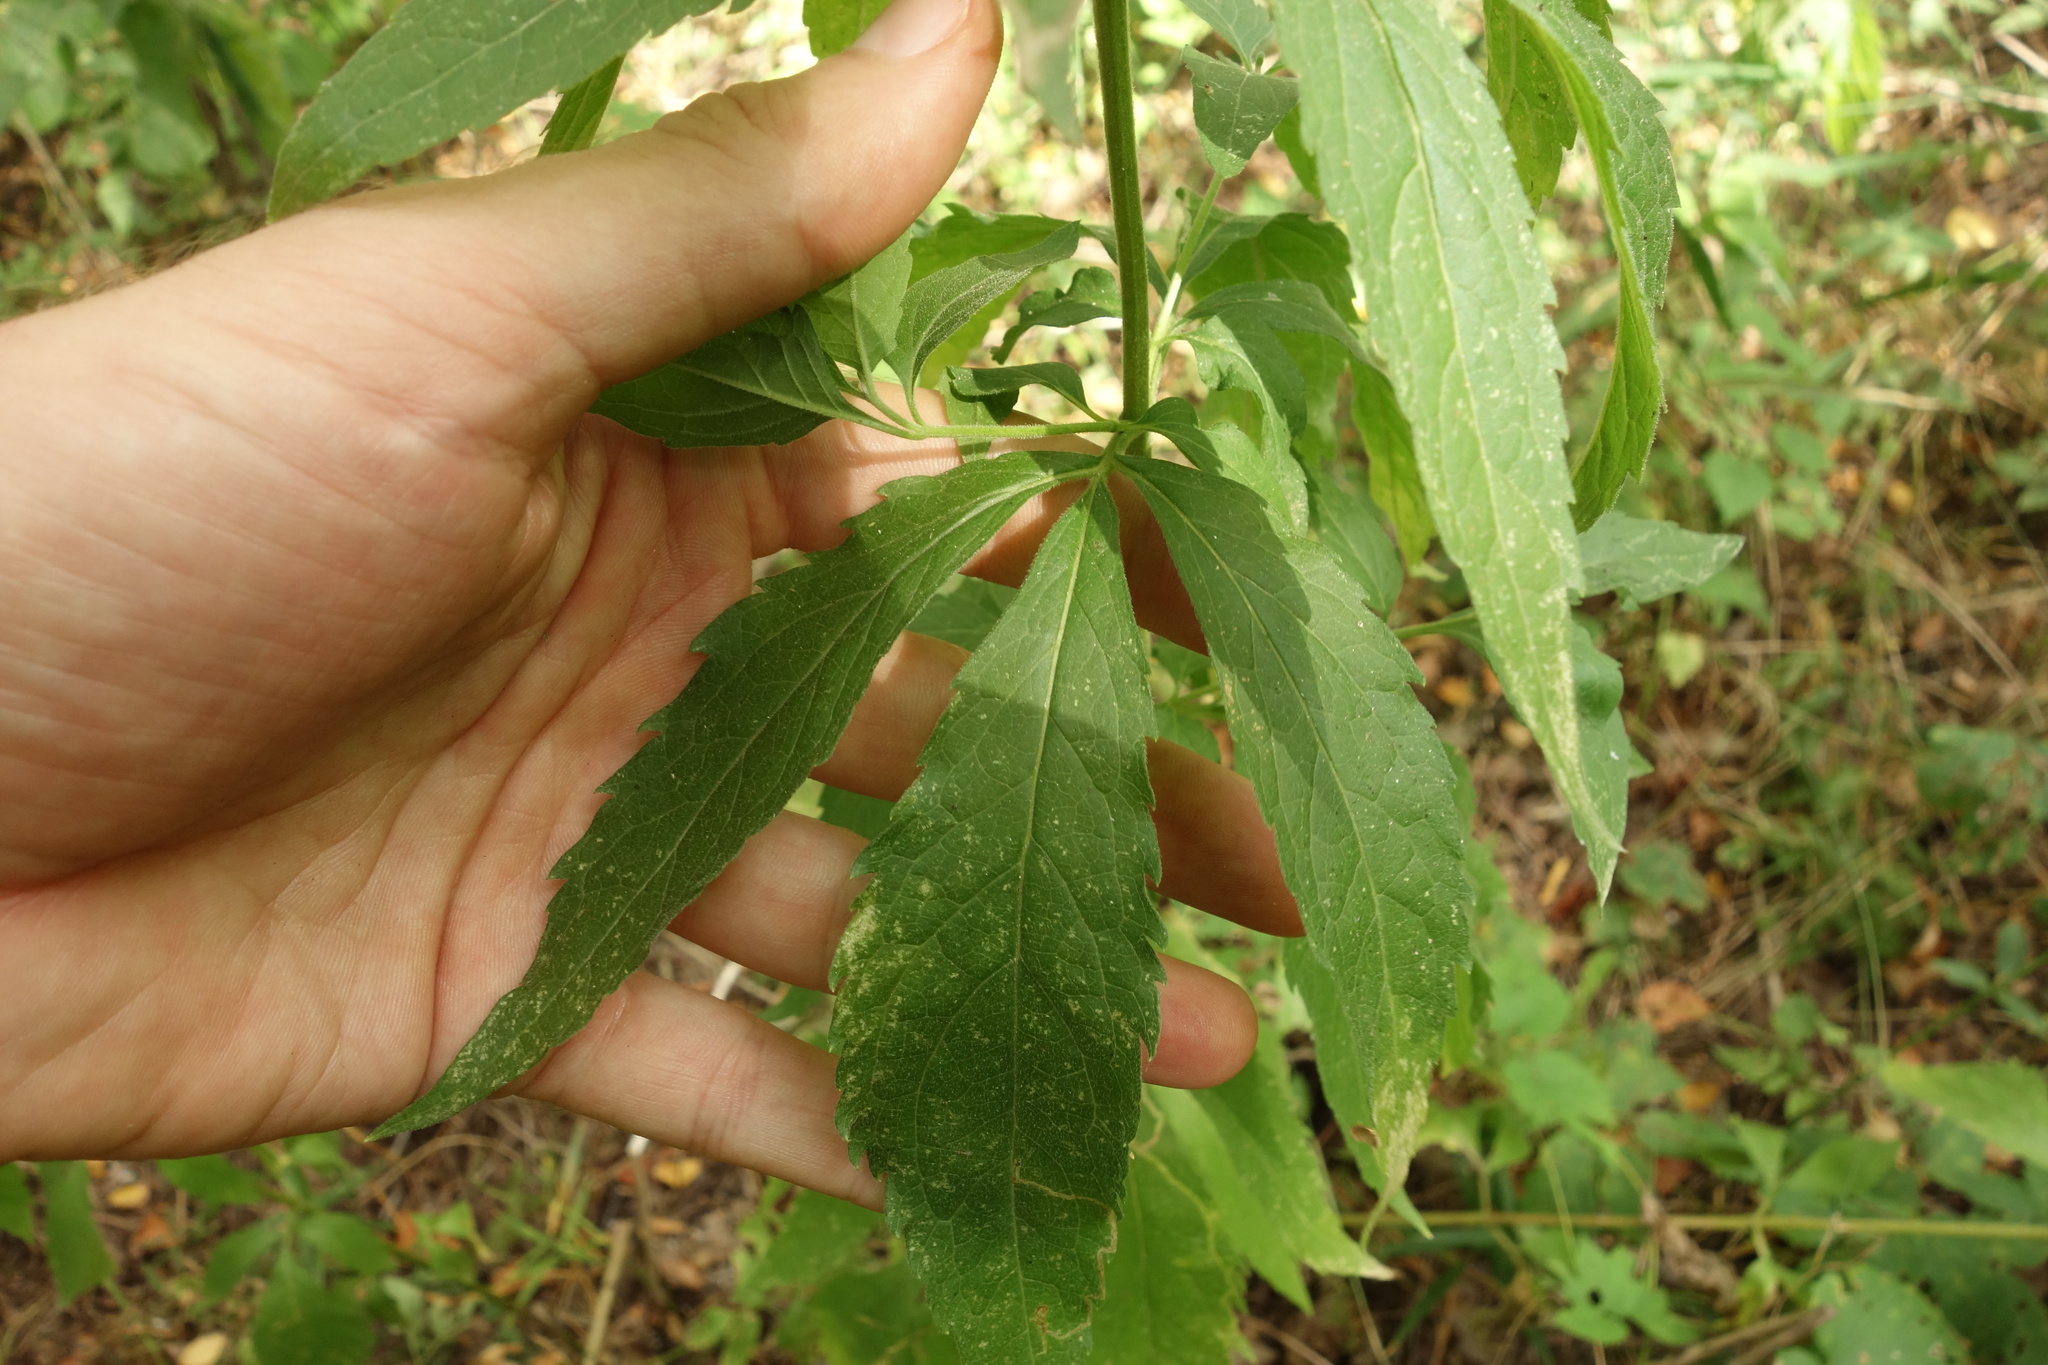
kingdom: Plantae
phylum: Tracheophyta
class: Magnoliopsida
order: Asterales
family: Asteraceae
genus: Eupatorium
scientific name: Eupatorium cannabinum
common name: Hemp-agrimony
